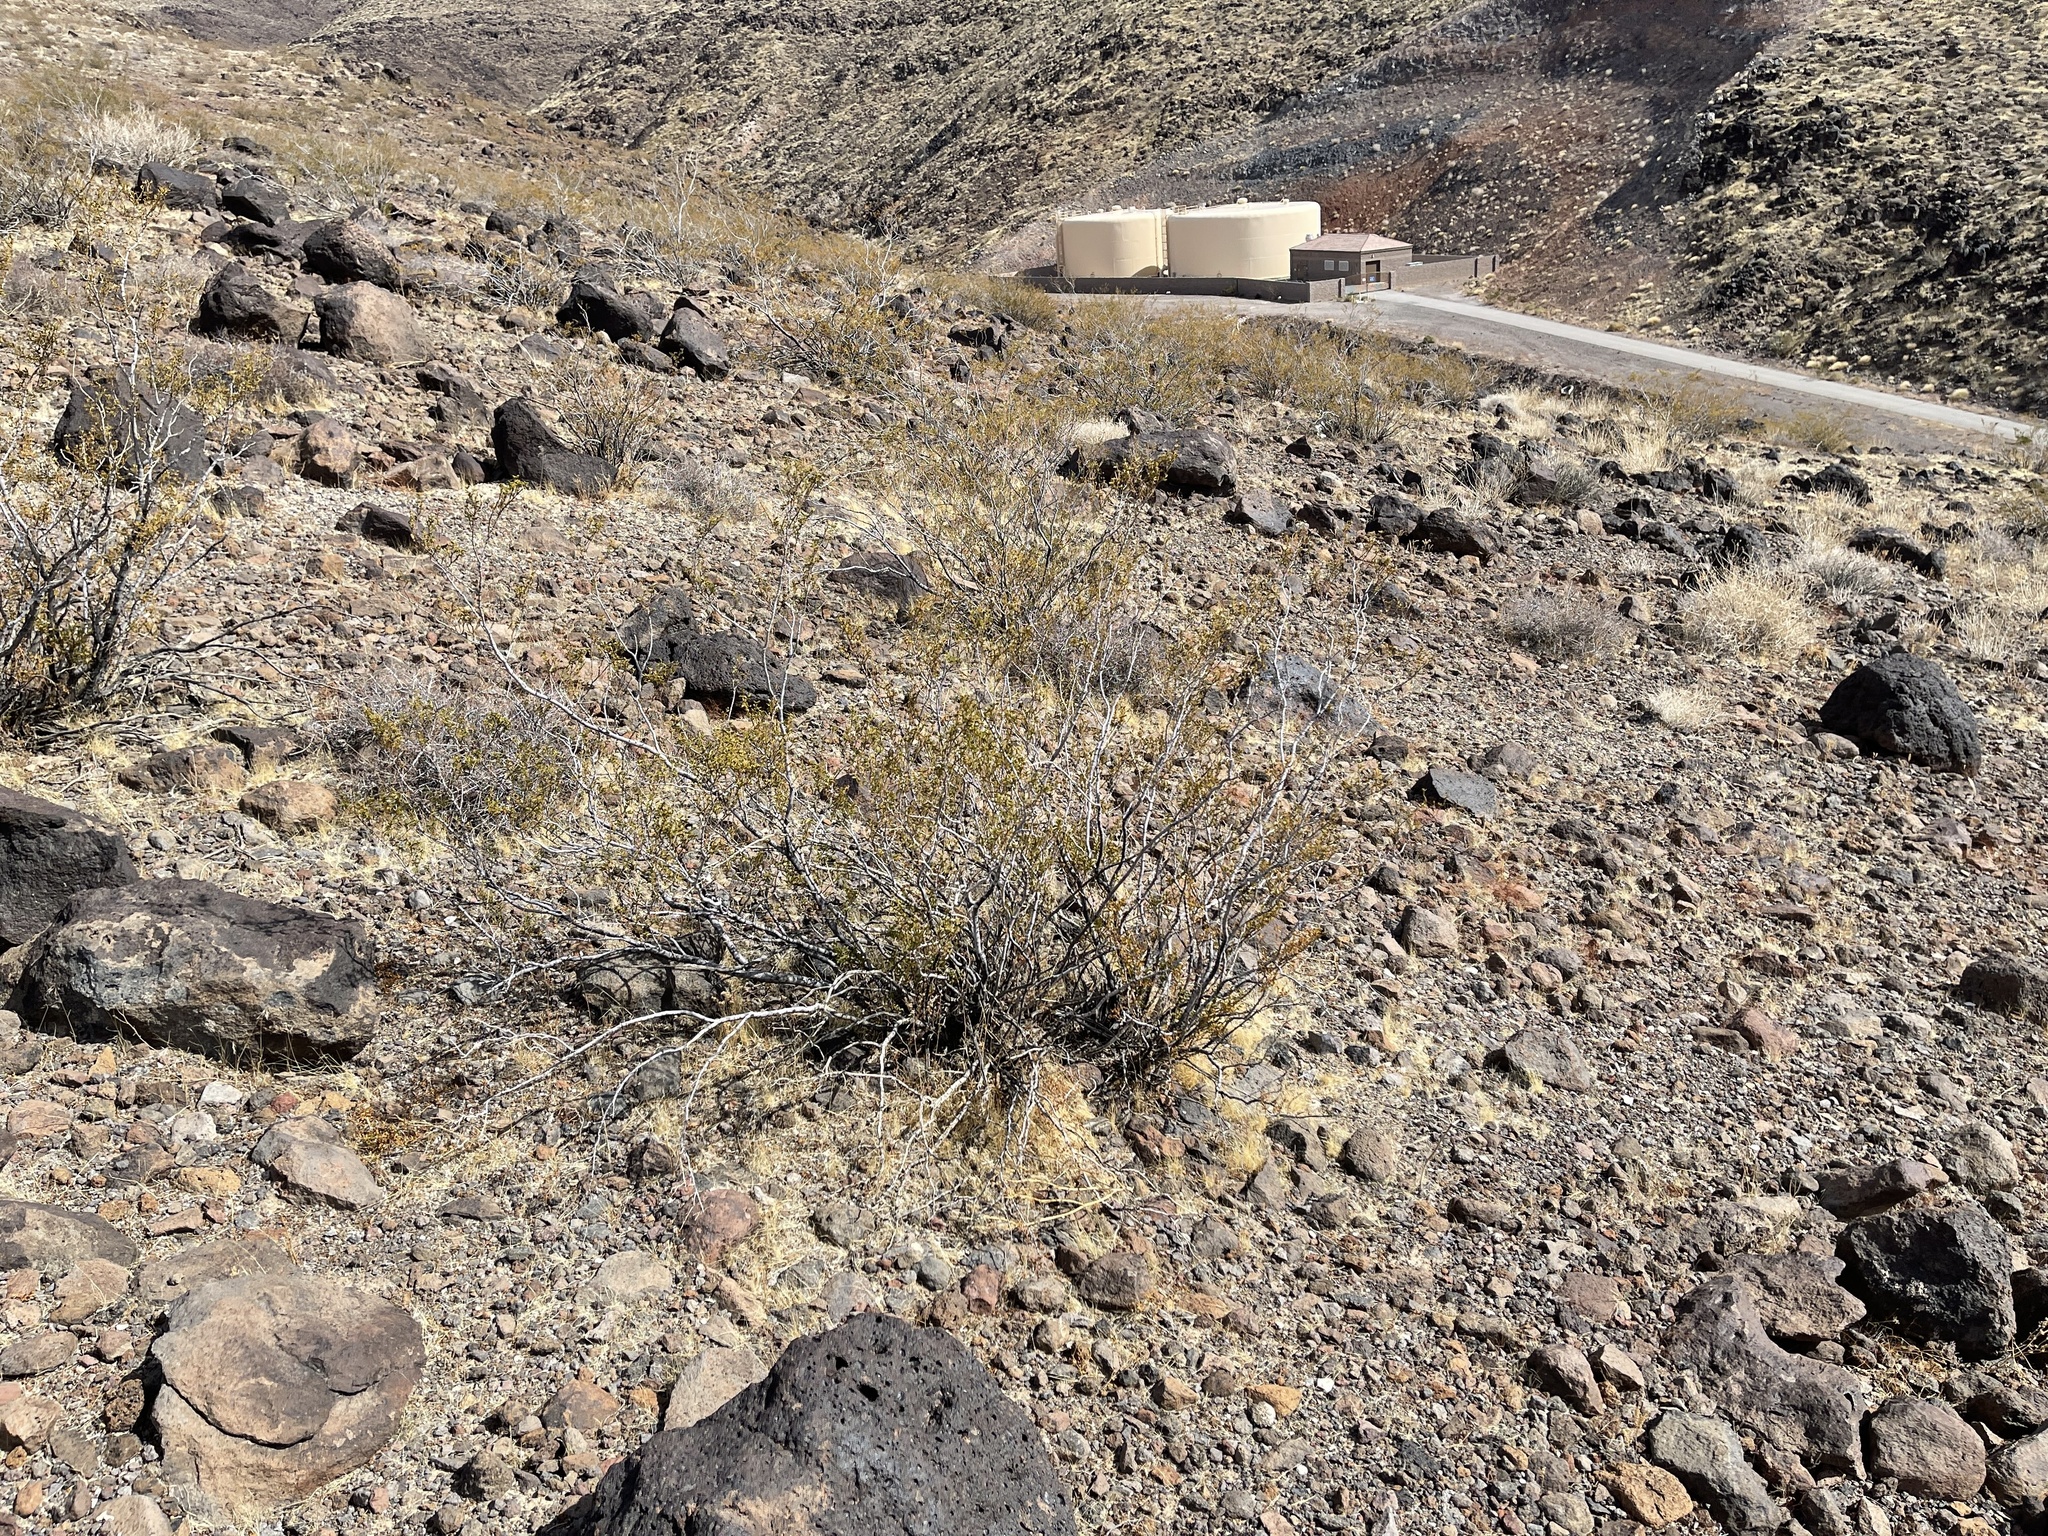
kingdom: Plantae
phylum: Tracheophyta
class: Magnoliopsida
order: Zygophyllales
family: Zygophyllaceae
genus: Larrea
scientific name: Larrea tridentata
